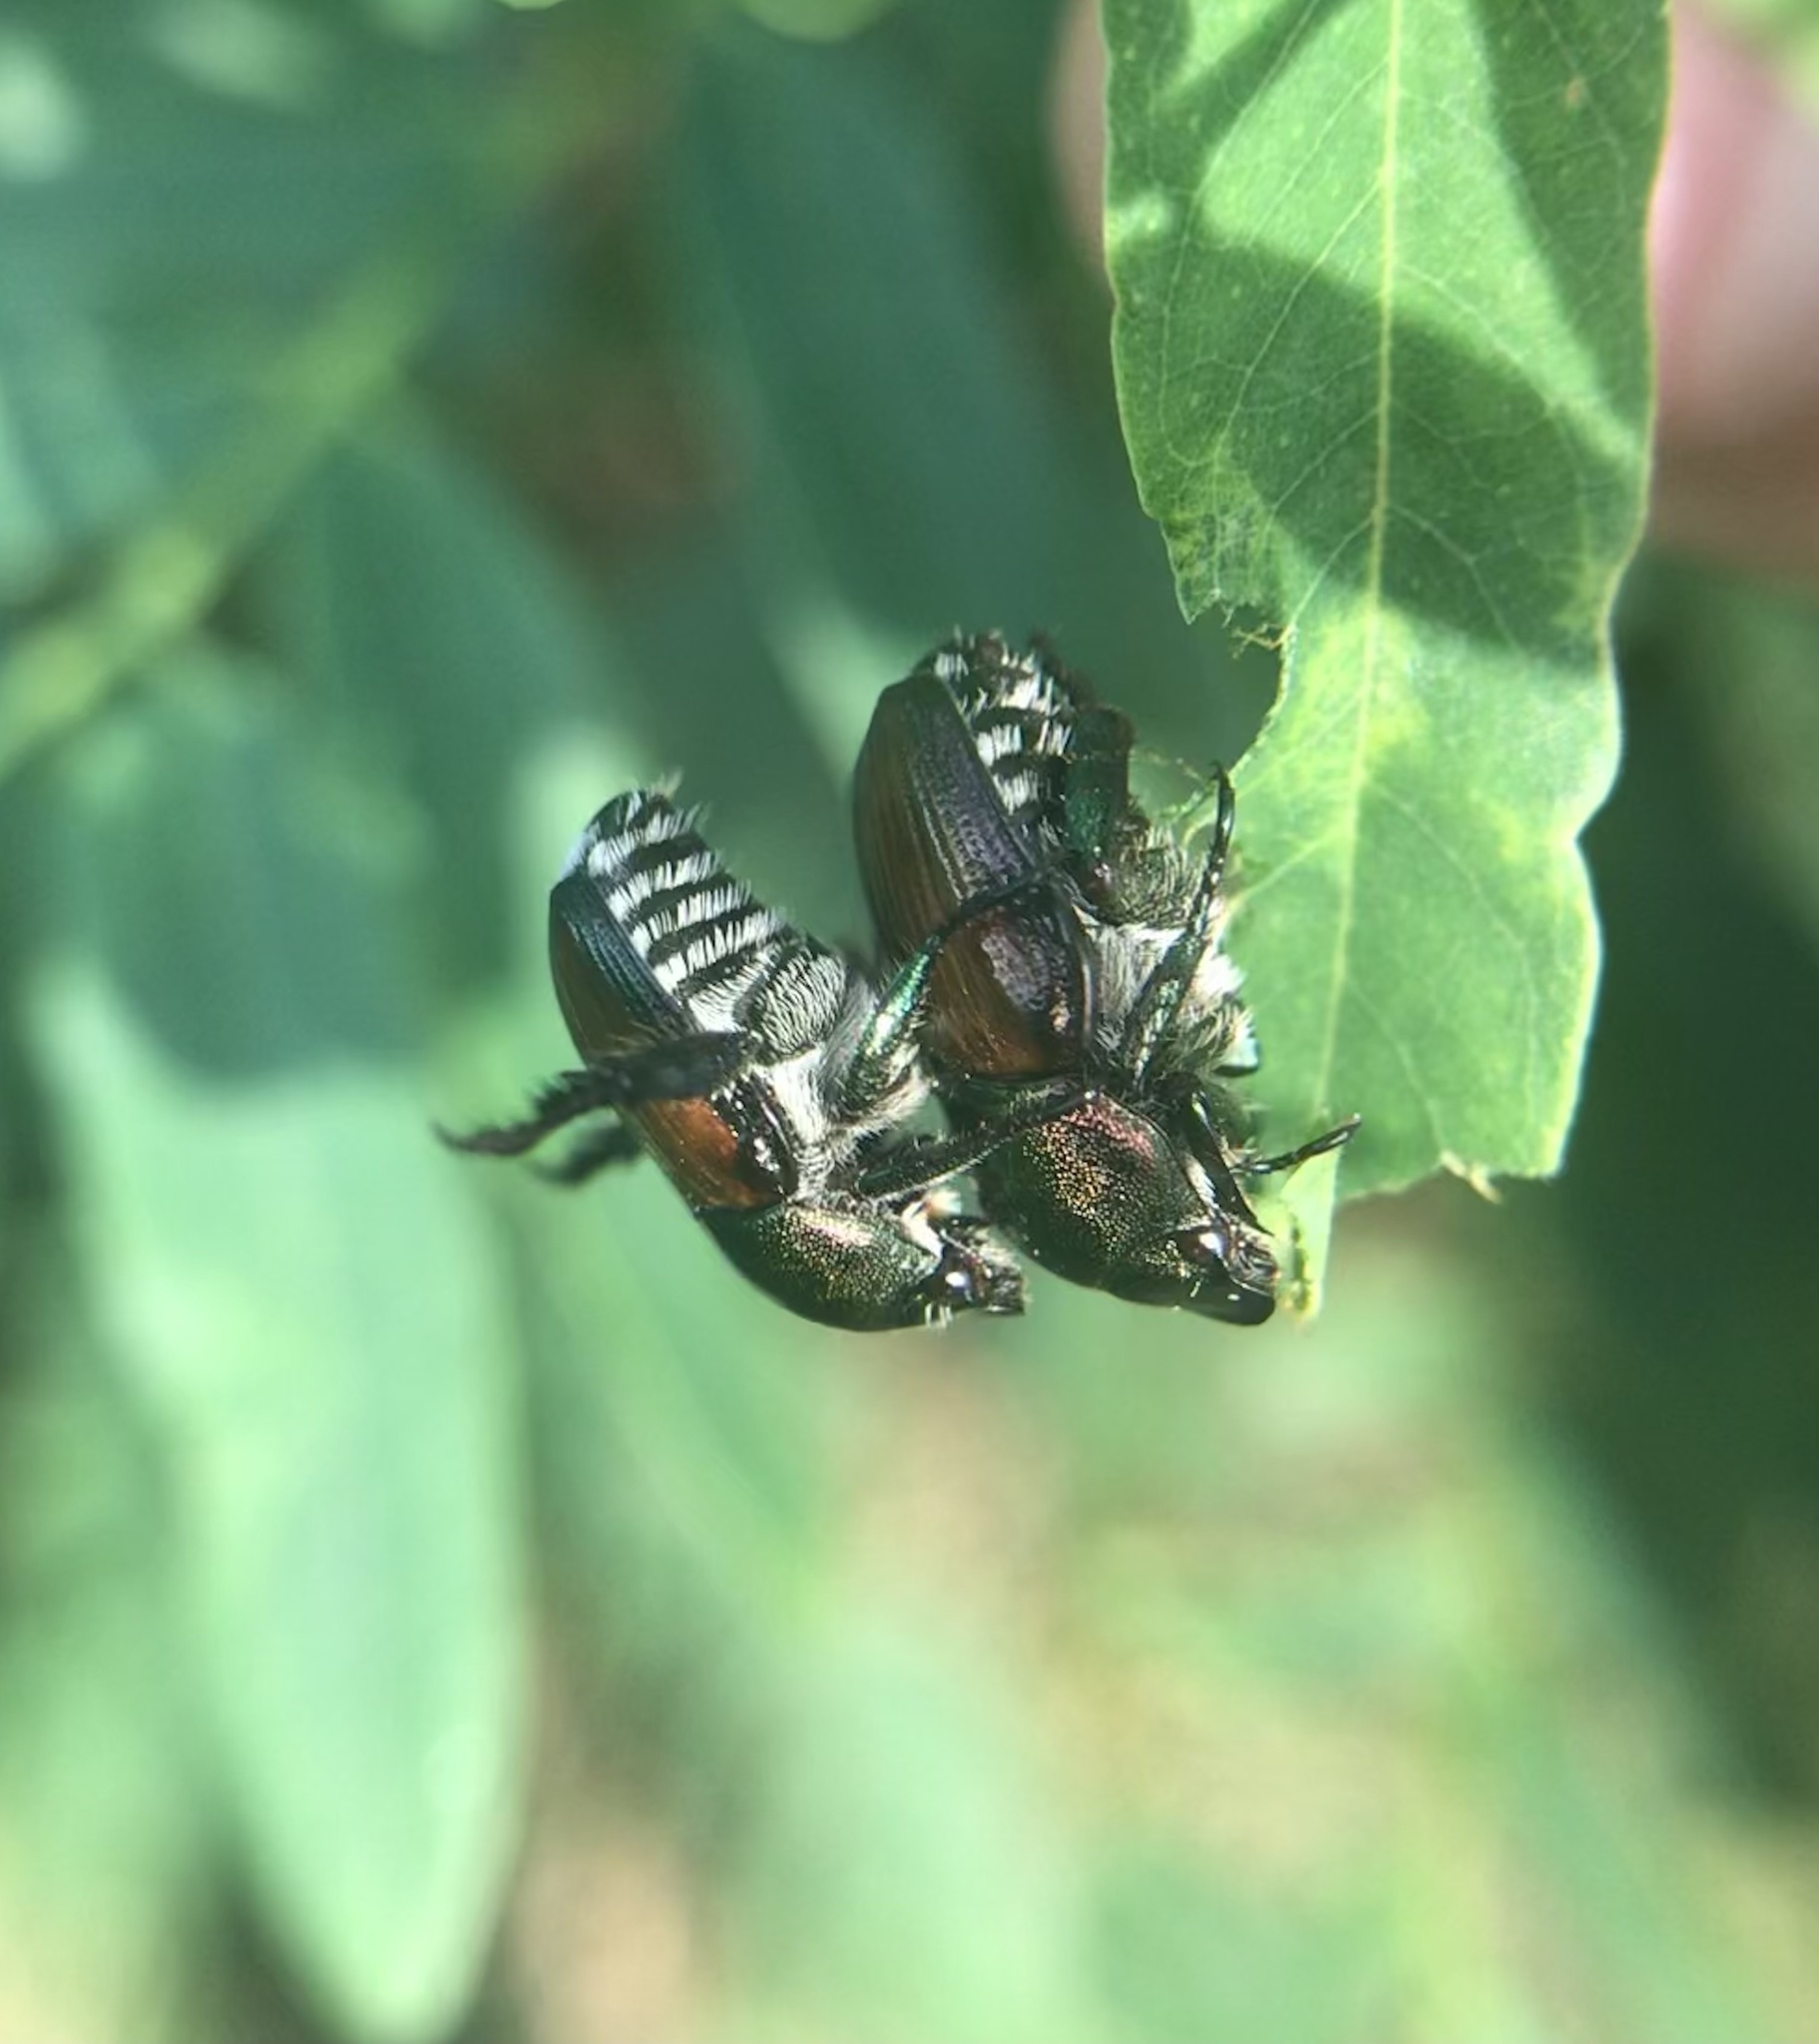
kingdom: Animalia
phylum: Arthropoda
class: Insecta
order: Coleoptera
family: Scarabaeidae
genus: Popillia
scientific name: Popillia japonica
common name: Japanese beetle
